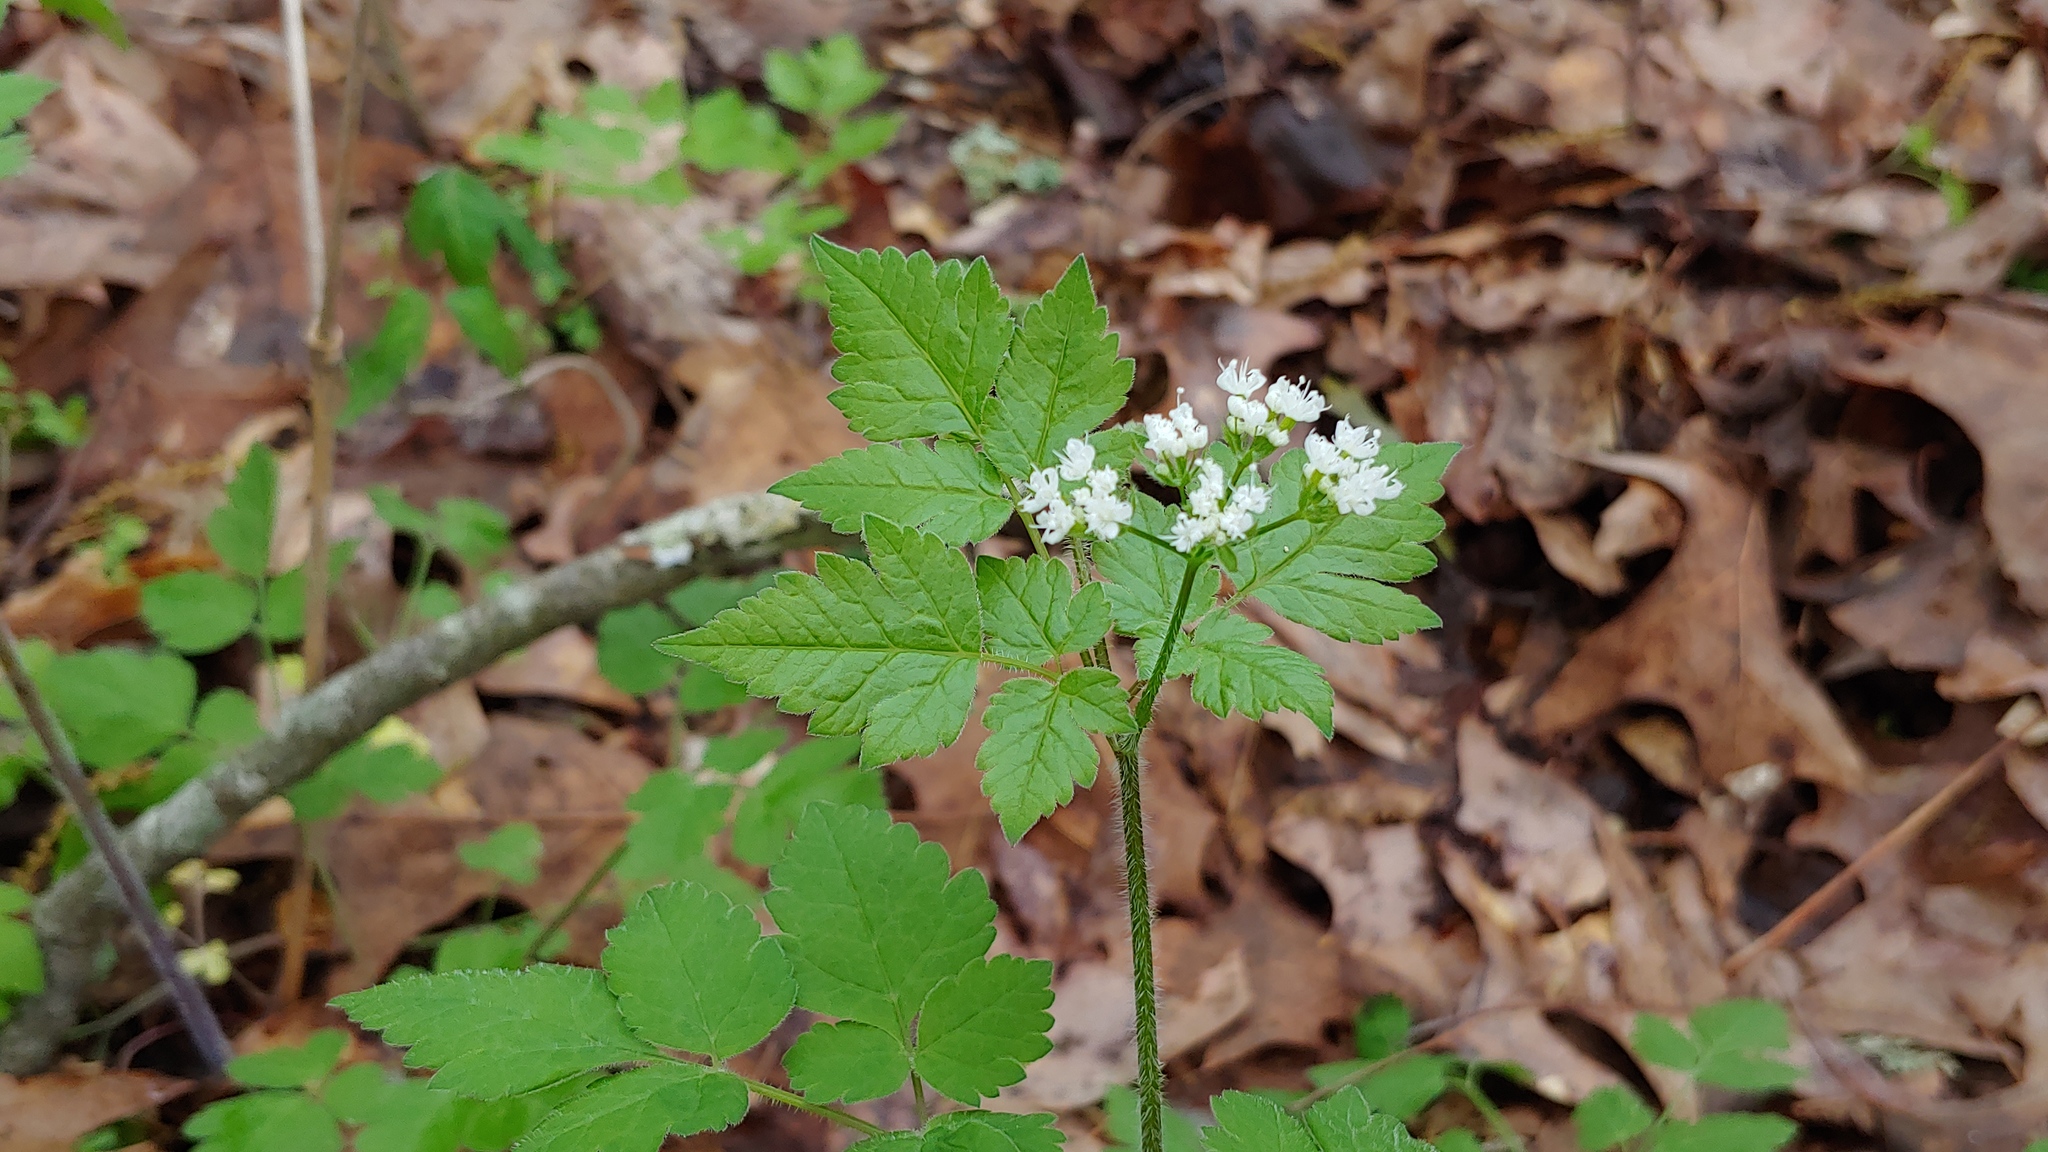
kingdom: Plantae
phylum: Tracheophyta
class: Magnoliopsida
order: Apiales
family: Apiaceae
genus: Osmorhiza
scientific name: Osmorhiza longistylis
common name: Smooth sweet cicely
